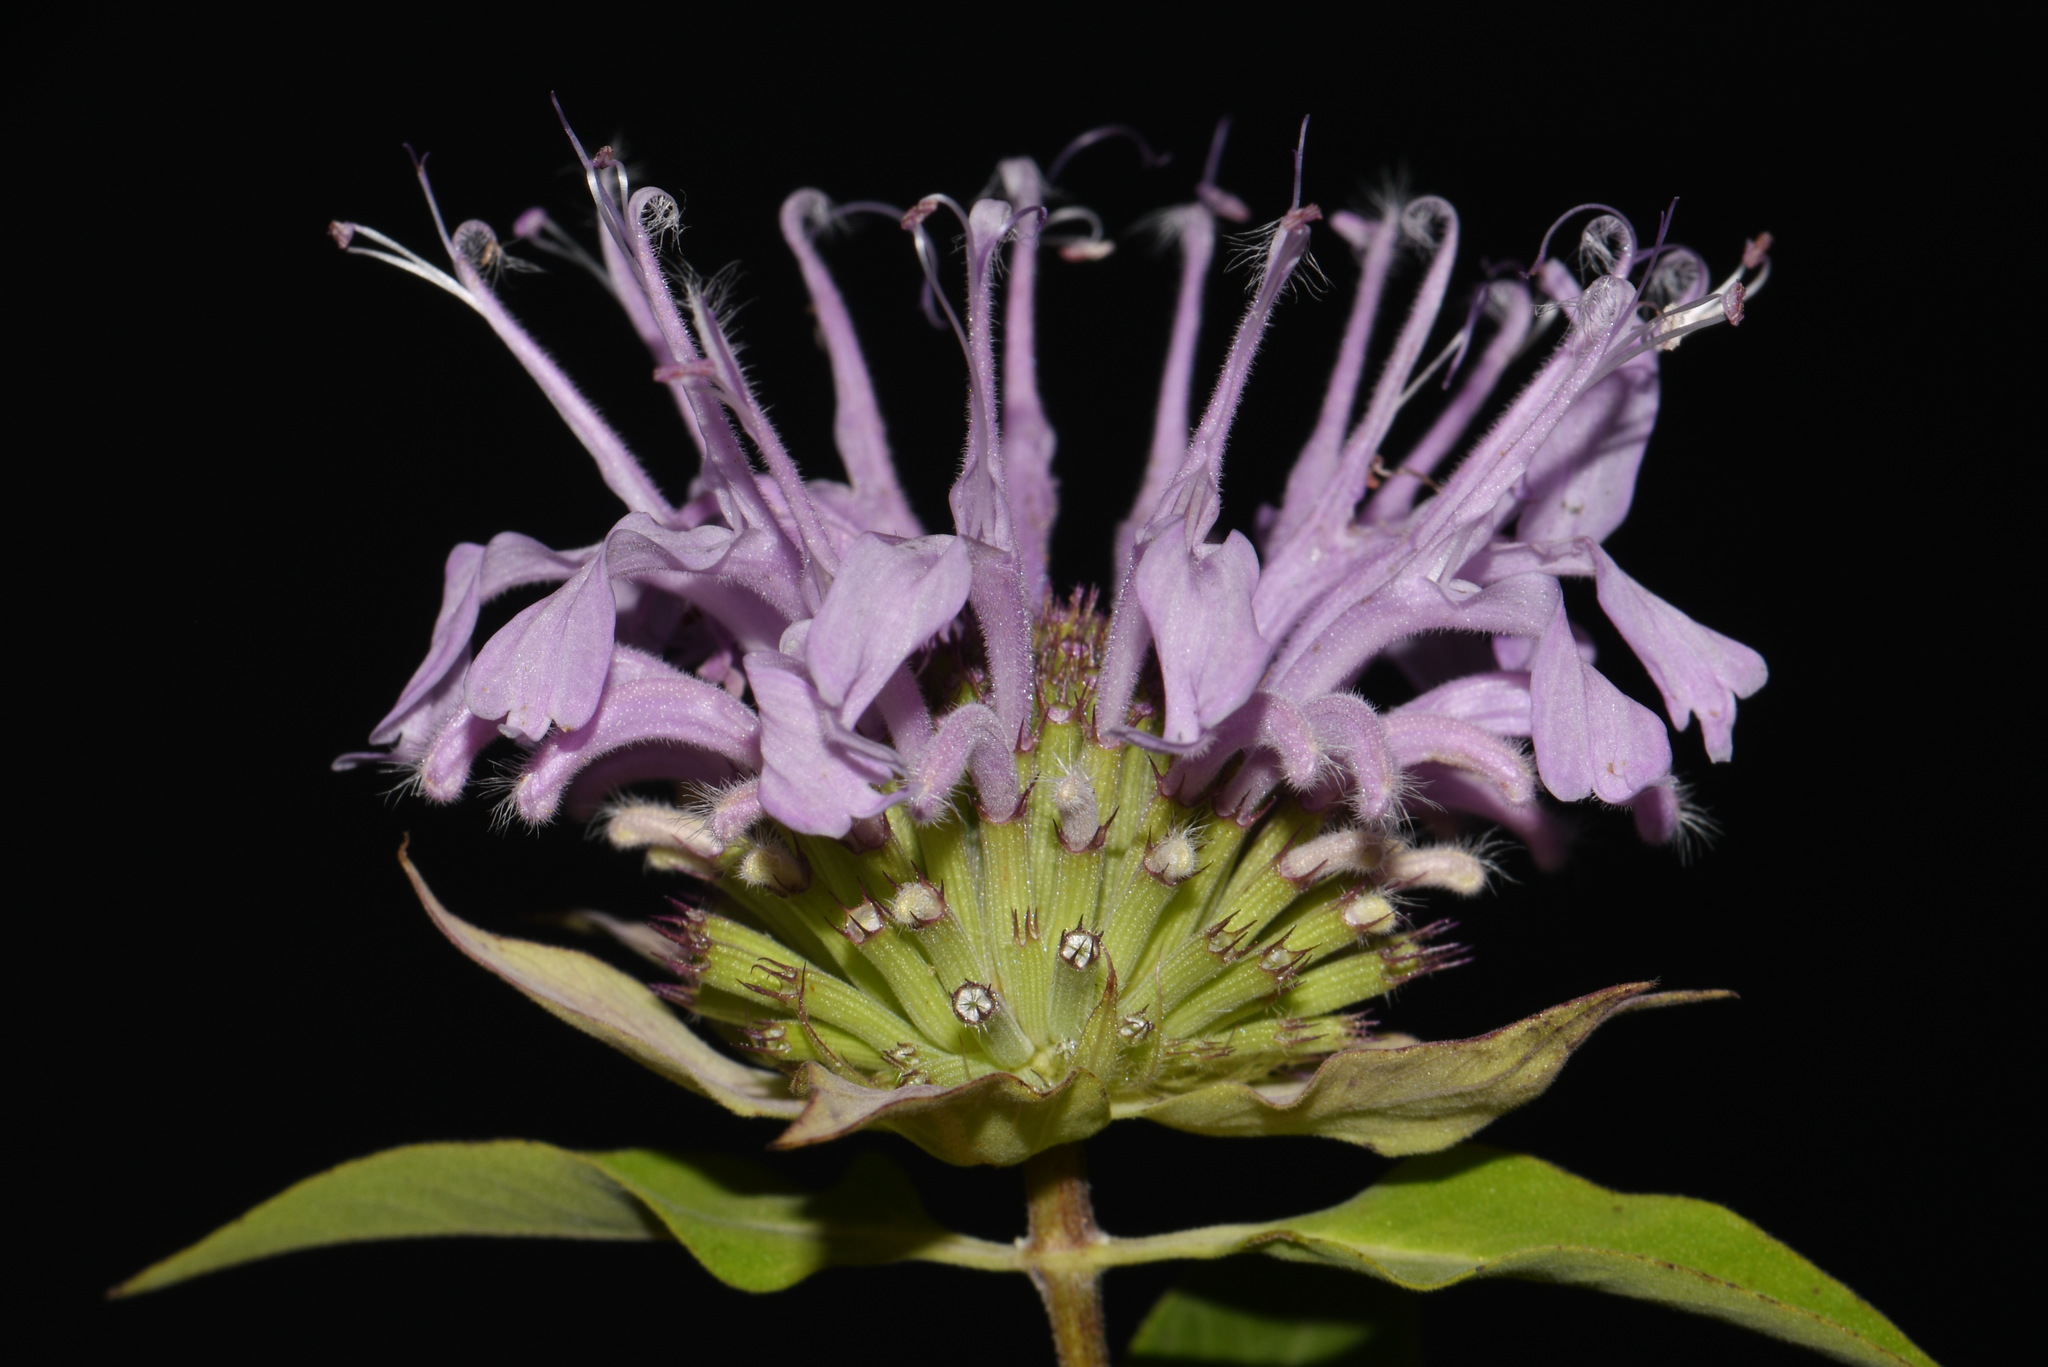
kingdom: Plantae
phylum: Tracheophyta
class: Magnoliopsida
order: Lamiales
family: Lamiaceae
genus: Monarda
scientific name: Monarda fistulosa
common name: Purple beebalm
